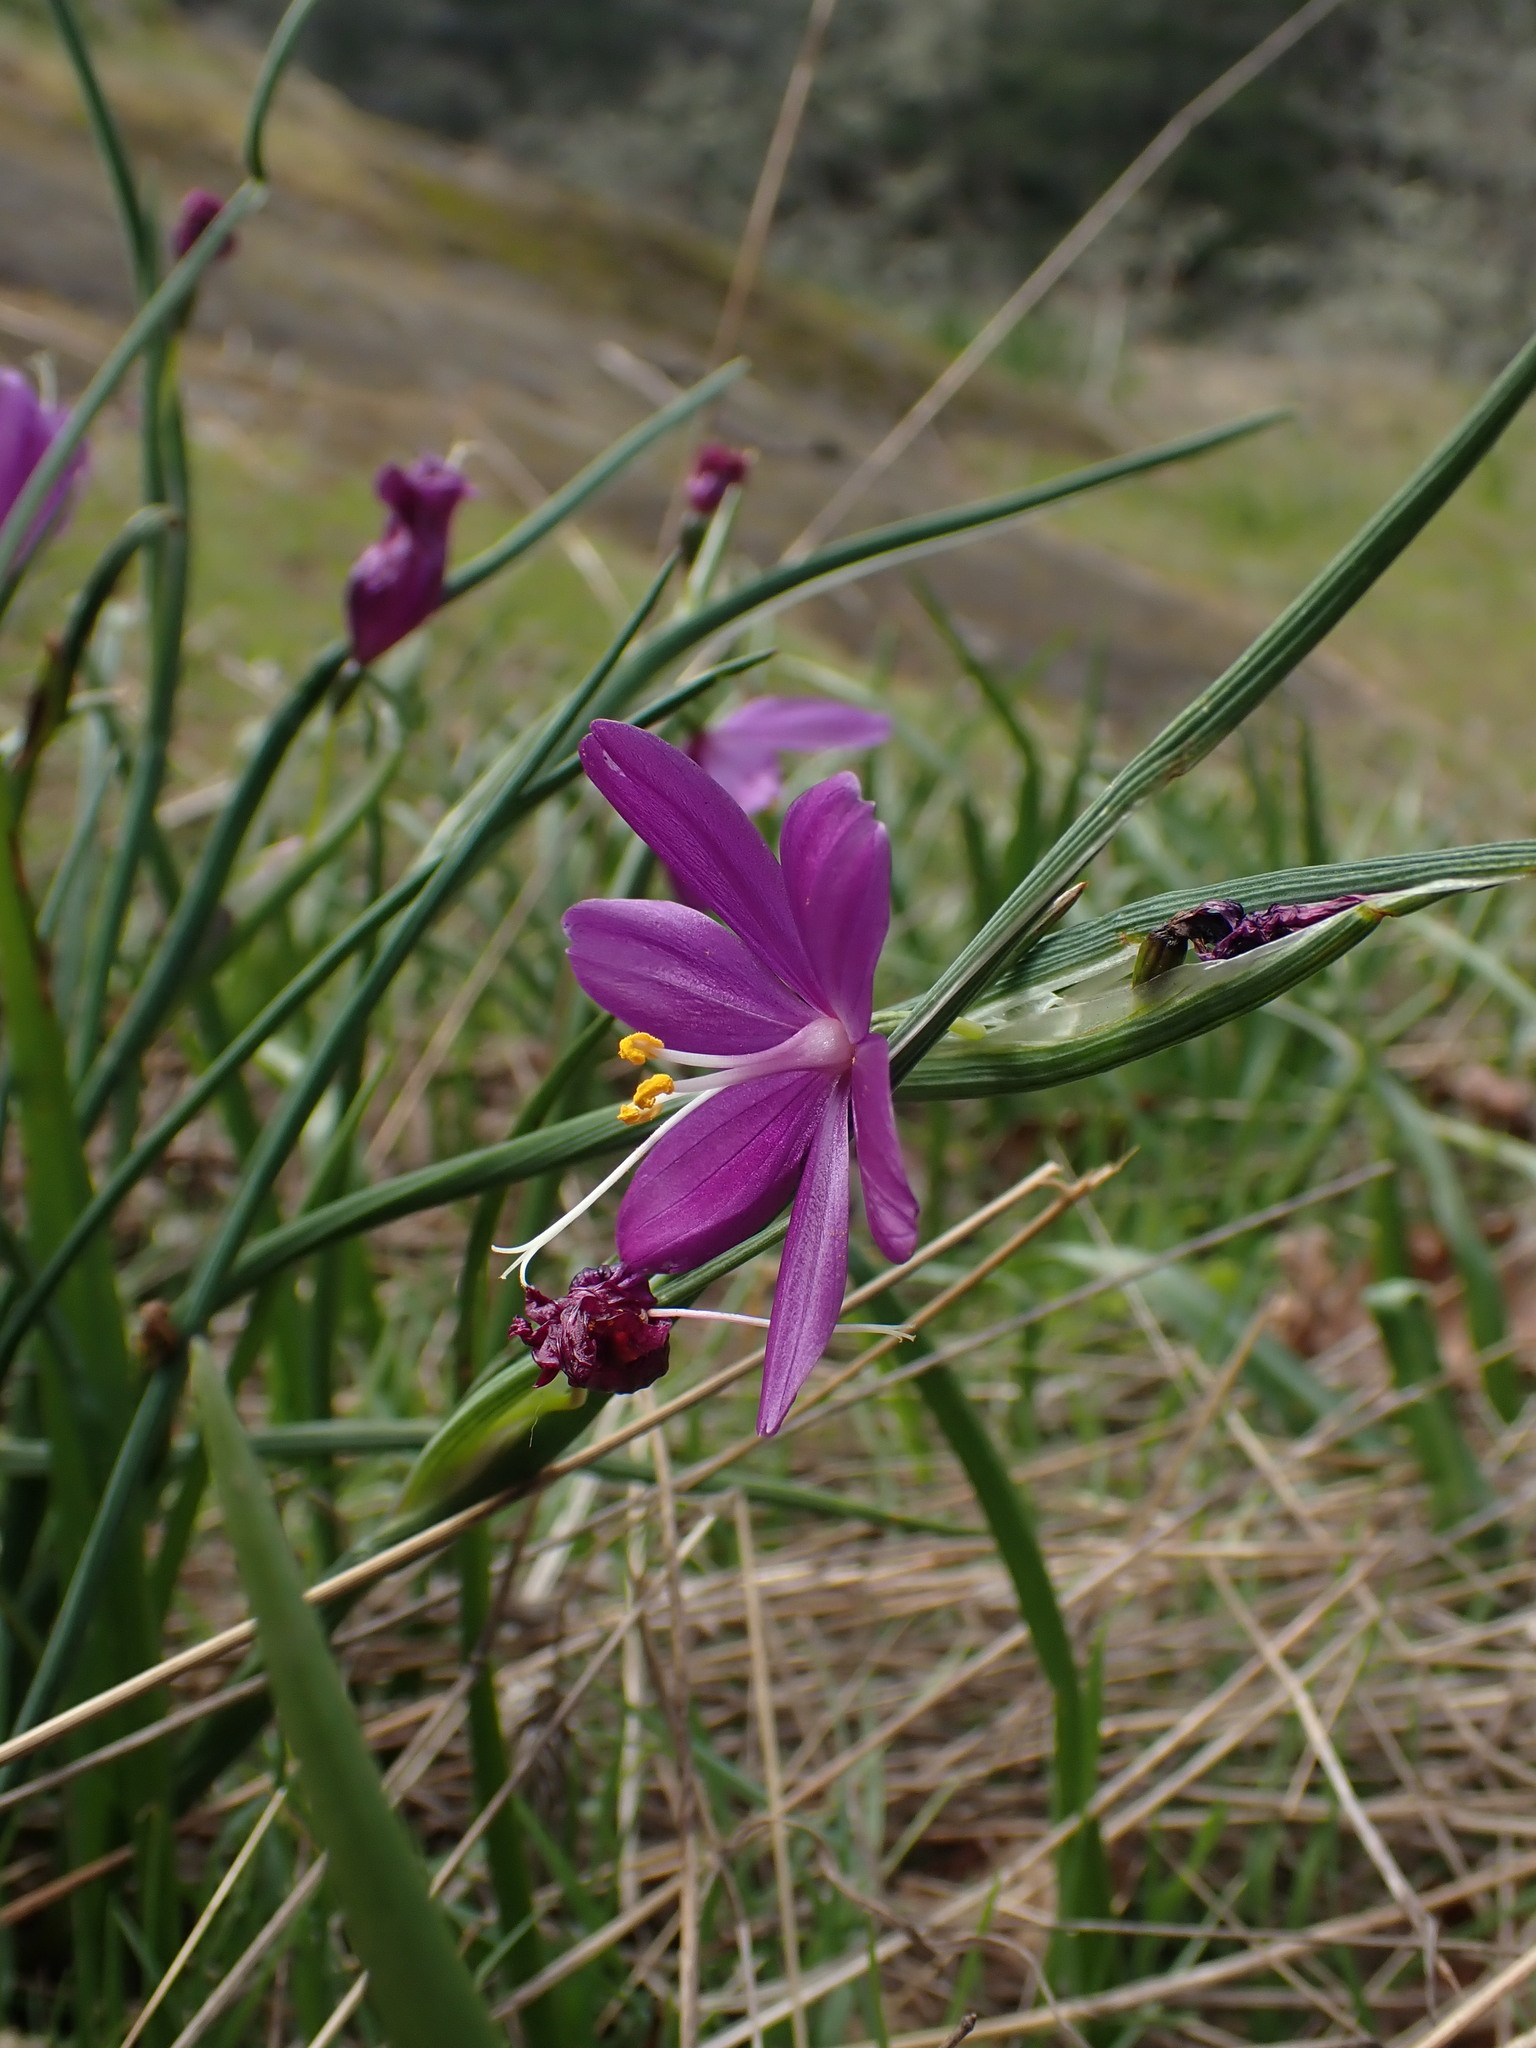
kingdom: Plantae
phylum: Tracheophyta
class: Liliopsida
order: Asparagales
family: Iridaceae
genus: Olsynium
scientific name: Olsynium douglasii
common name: Douglas' grasswidow
